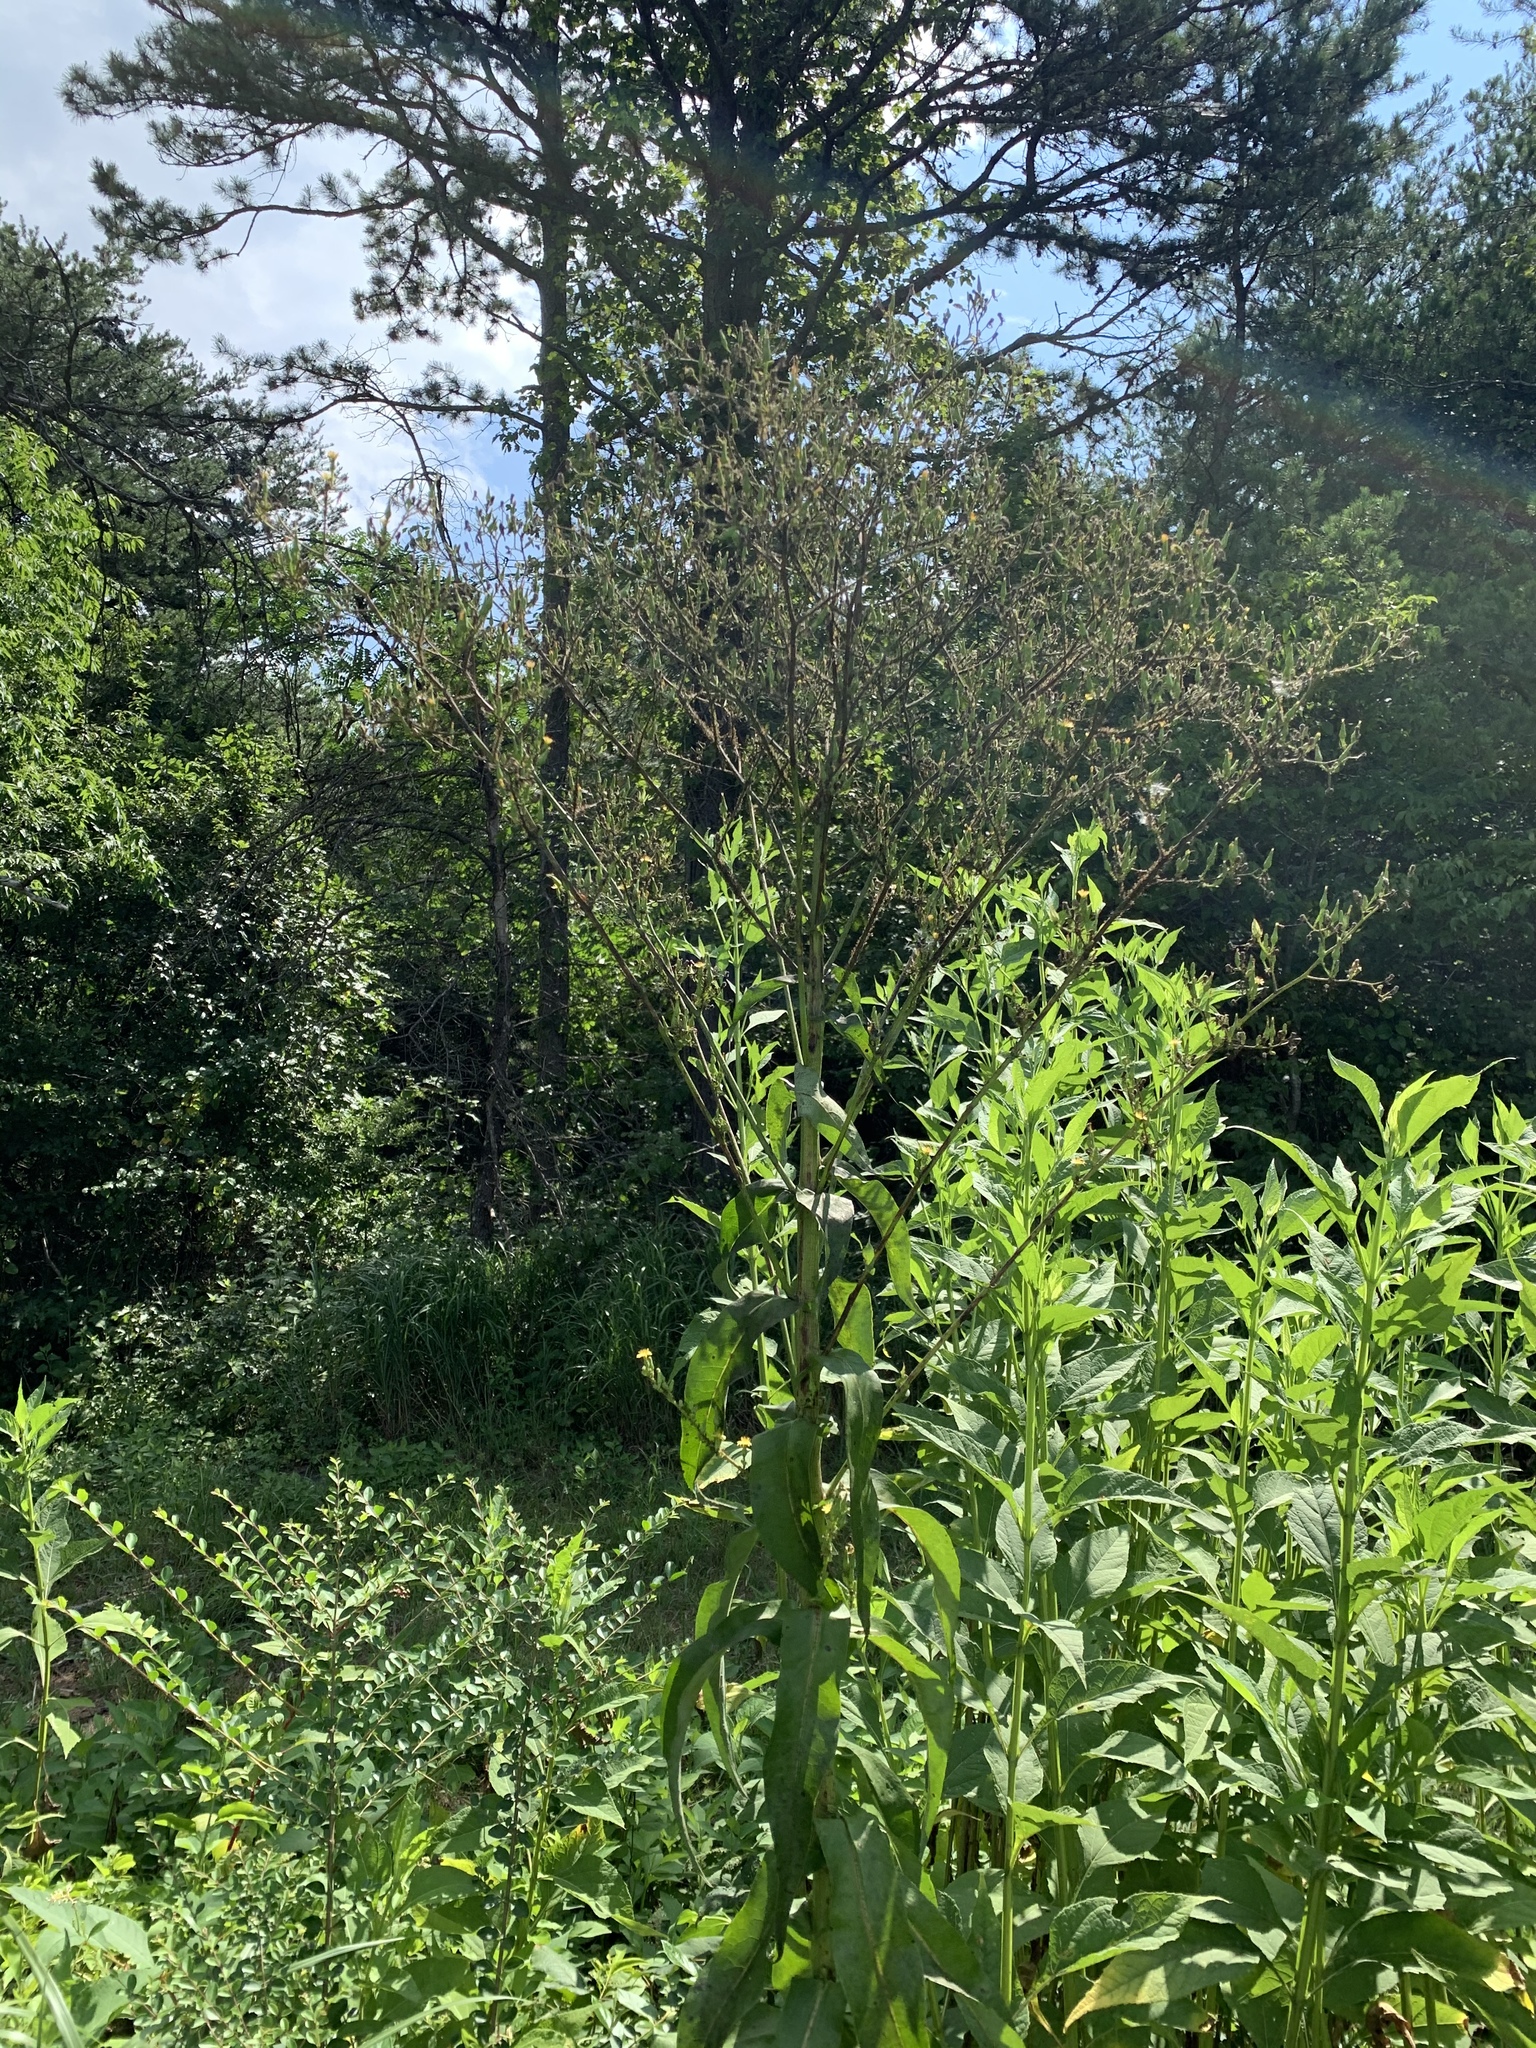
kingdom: Plantae
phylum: Tracheophyta
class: Magnoliopsida
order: Asterales
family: Asteraceae
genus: Lactuca
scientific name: Lactuca canadensis
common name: Canada lettuce
